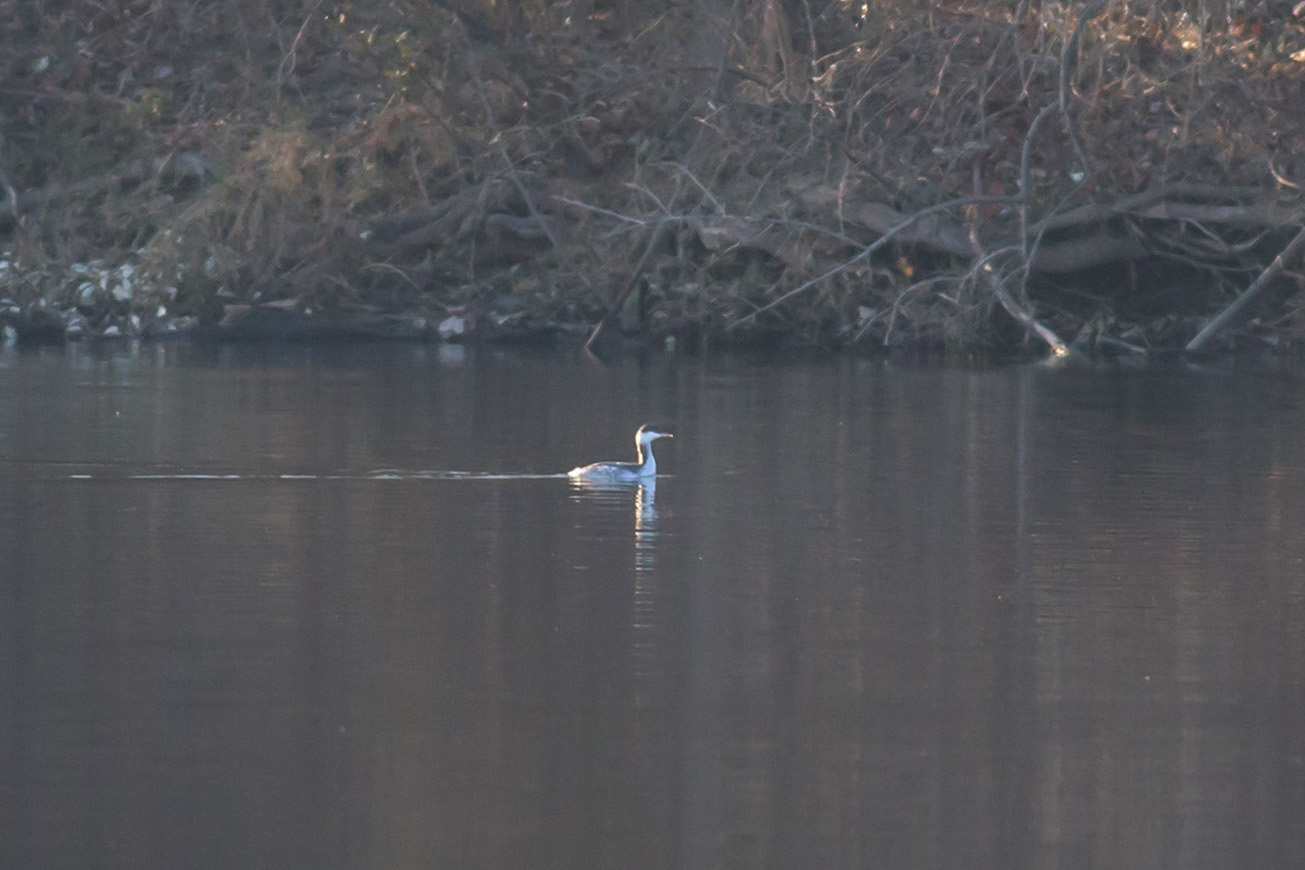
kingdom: Animalia
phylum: Chordata
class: Aves
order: Podicipediformes
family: Podicipedidae
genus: Podiceps
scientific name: Podiceps auritus
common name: Horned grebe
